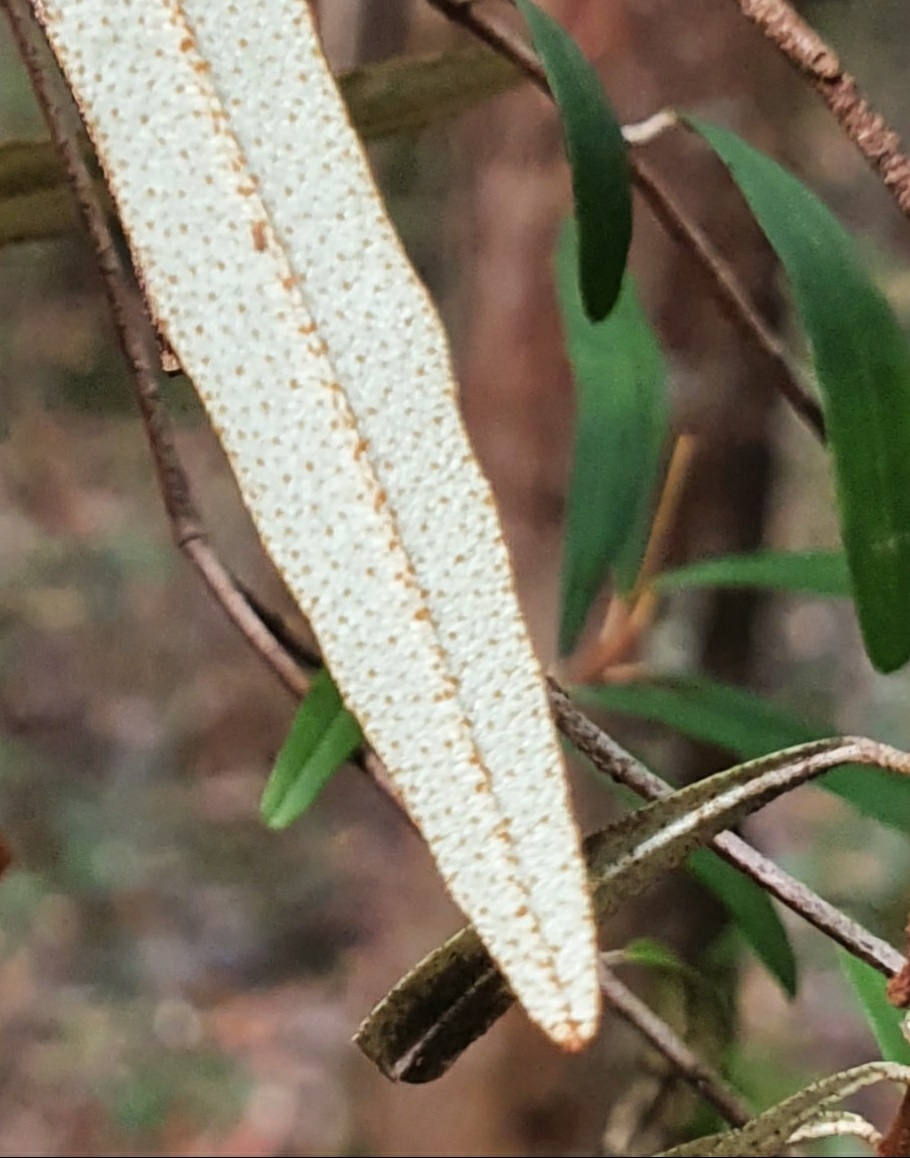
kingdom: Plantae
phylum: Tracheophyta
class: Magnoliopsida
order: Sapindales
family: Rutaceae
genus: Phebalium
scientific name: Phebalium woombye
